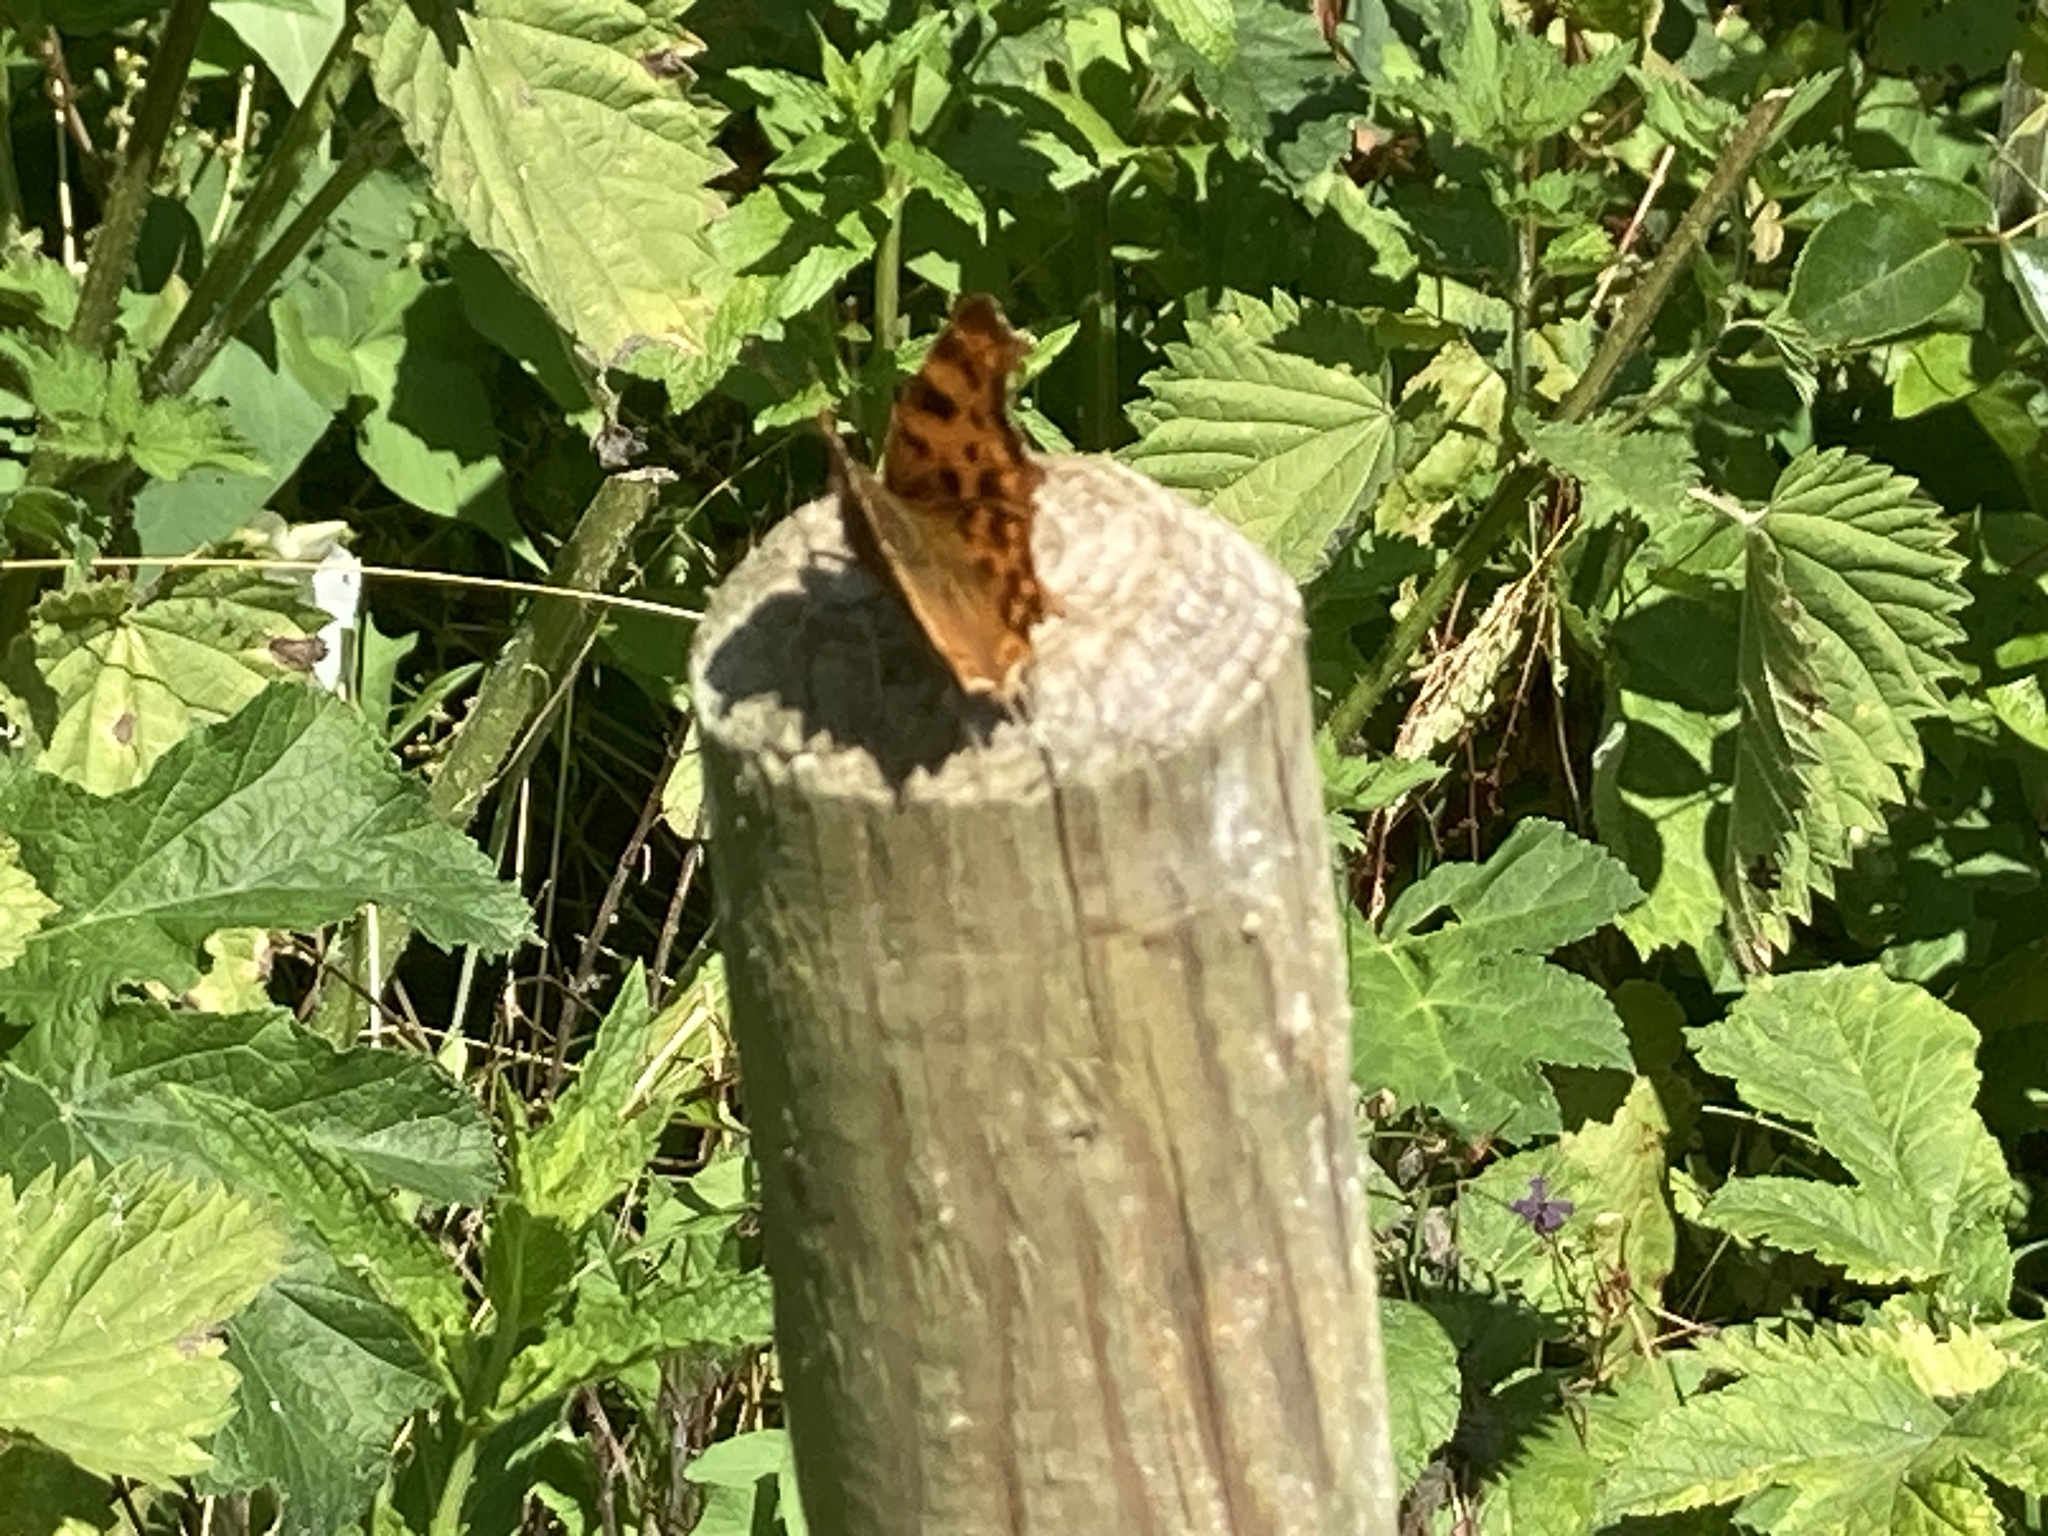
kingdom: Animalia
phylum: Arthropoda
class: Insecta
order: Lepidoptera
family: Nymphalidae
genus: Polygonia
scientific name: Polygonia c-album
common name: Comma
